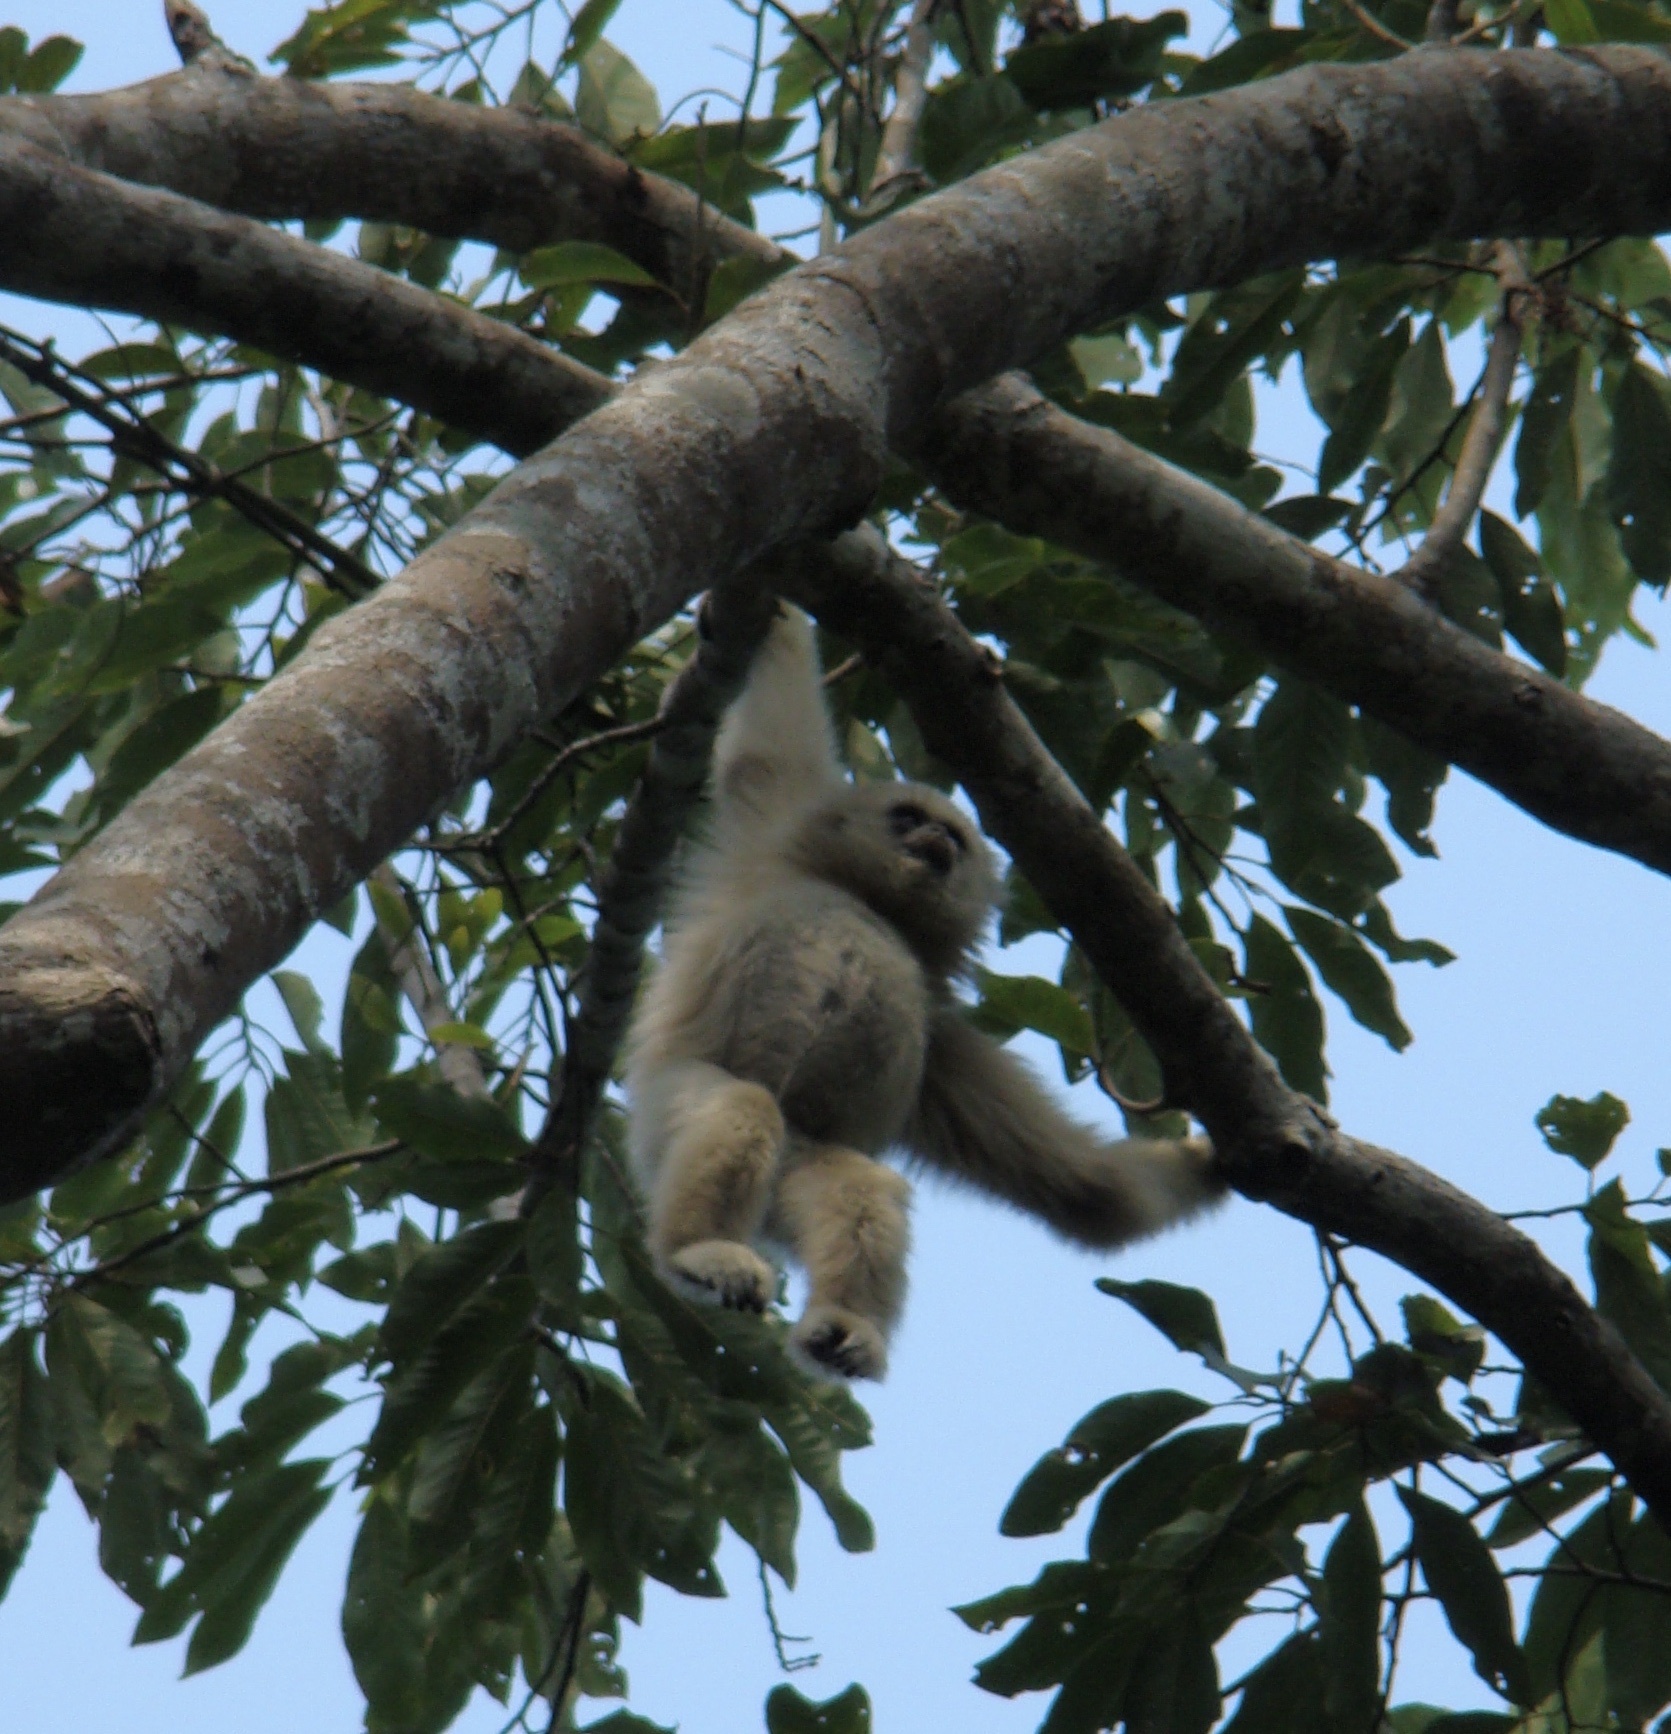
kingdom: Animalia
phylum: Chordata
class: Mammalia
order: Primates
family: Hylobatidae
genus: Hylobates
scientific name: Hylobates pileatus
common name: Pileated gibbon
